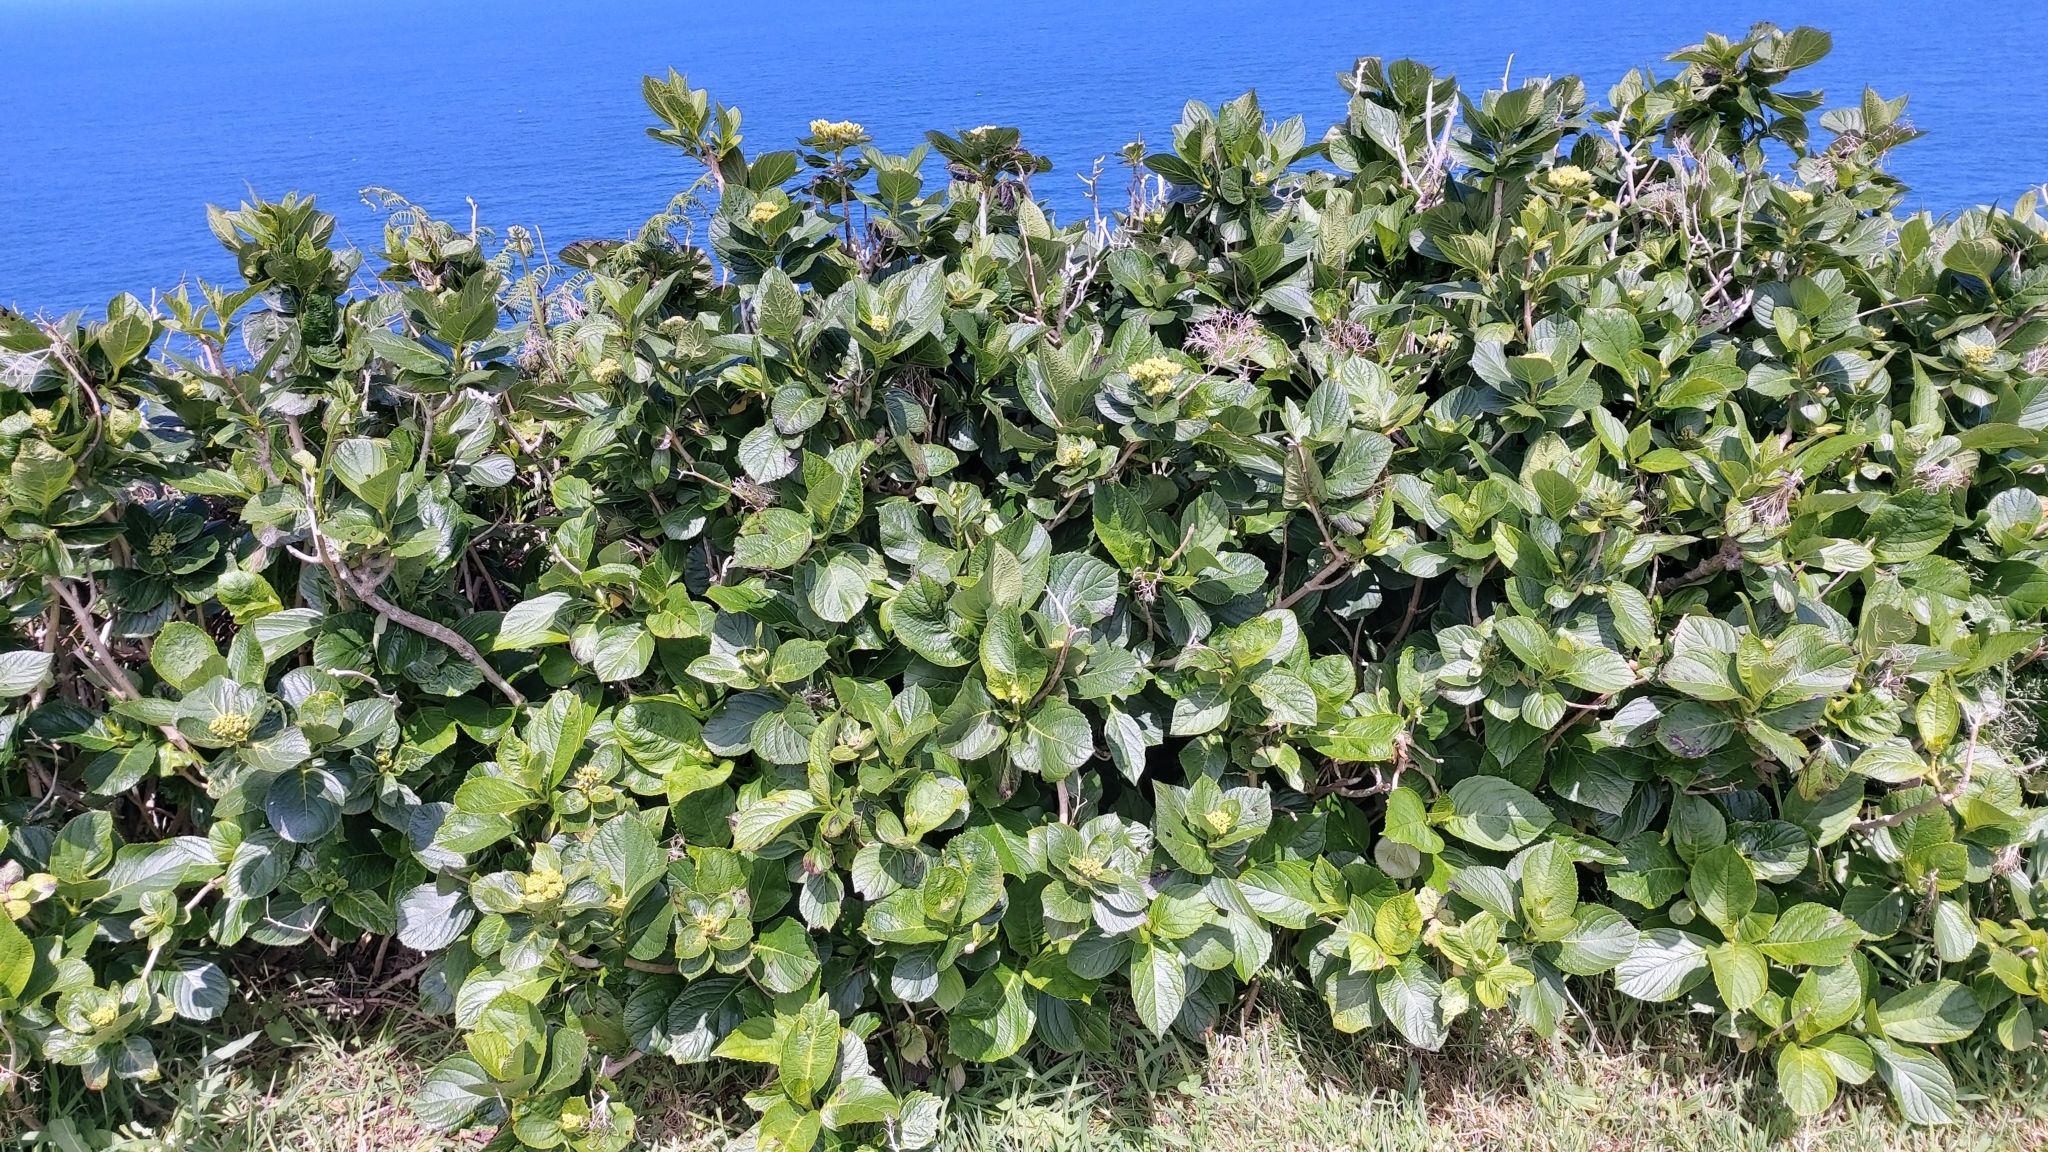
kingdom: Plantae
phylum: Tracheophyta
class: Magnoliopsida
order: Cornales
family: Hydrangeaceae
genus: Hydrangea
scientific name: Hydrangea macrophylla
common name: Hydrangea
